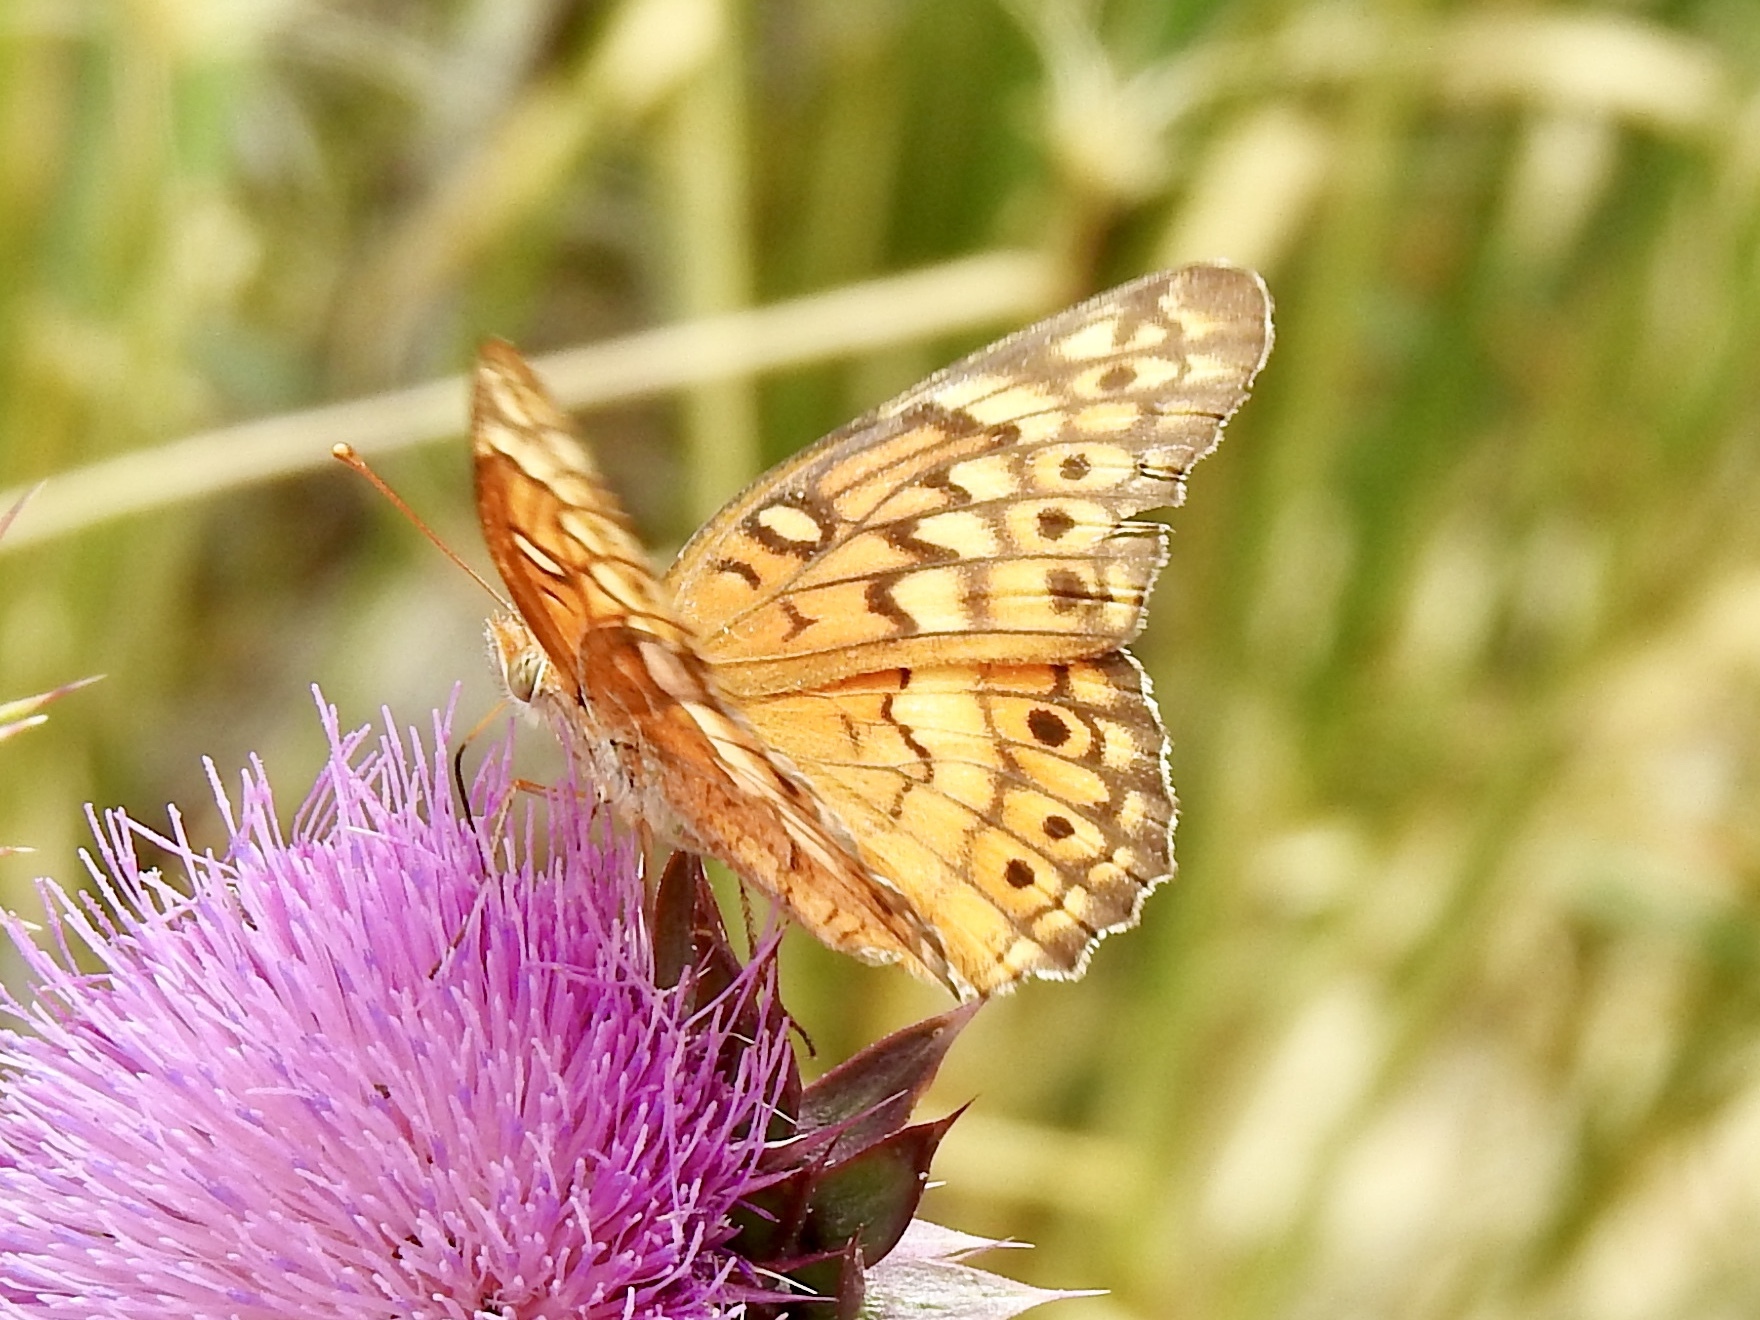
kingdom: Animalia
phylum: Arthropoda
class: Insecta
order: Lepidoptera
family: Nymphalidae
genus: Euptoieta
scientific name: Euptoieta claudia
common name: Variegated fritillary
